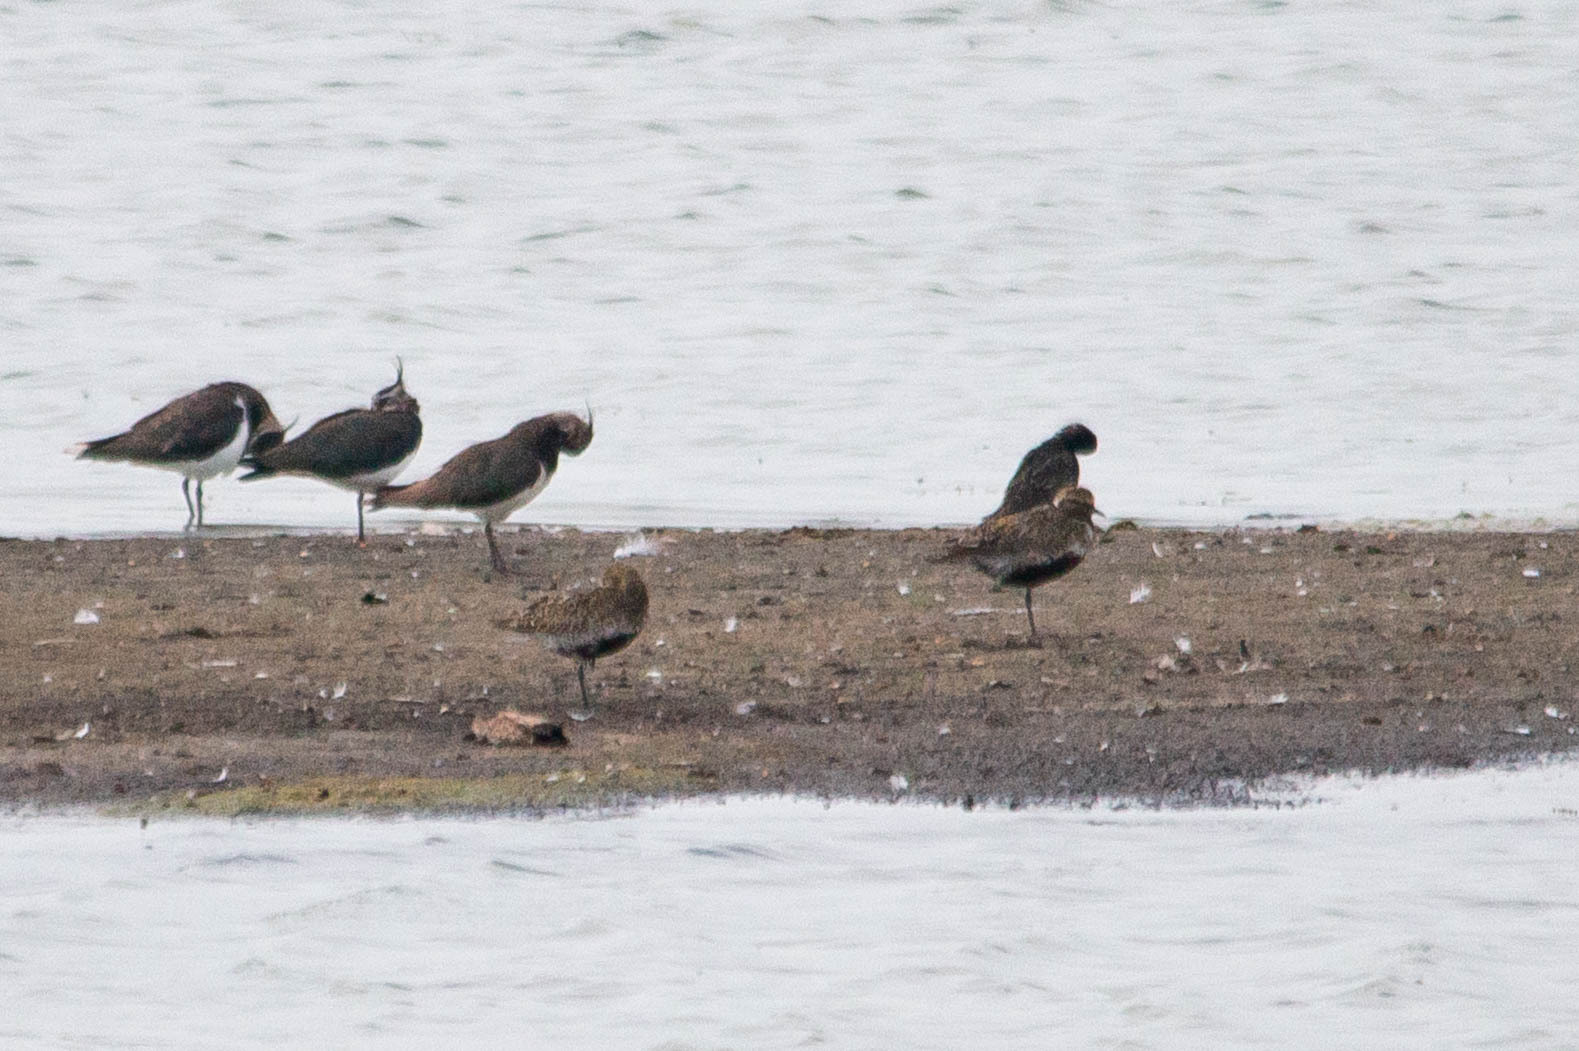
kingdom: Animalia
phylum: Chordata
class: Aves
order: Charadriiformes
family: Charadriidae
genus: Pluvialis
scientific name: Pluvialis apricaria
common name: European golden plover
